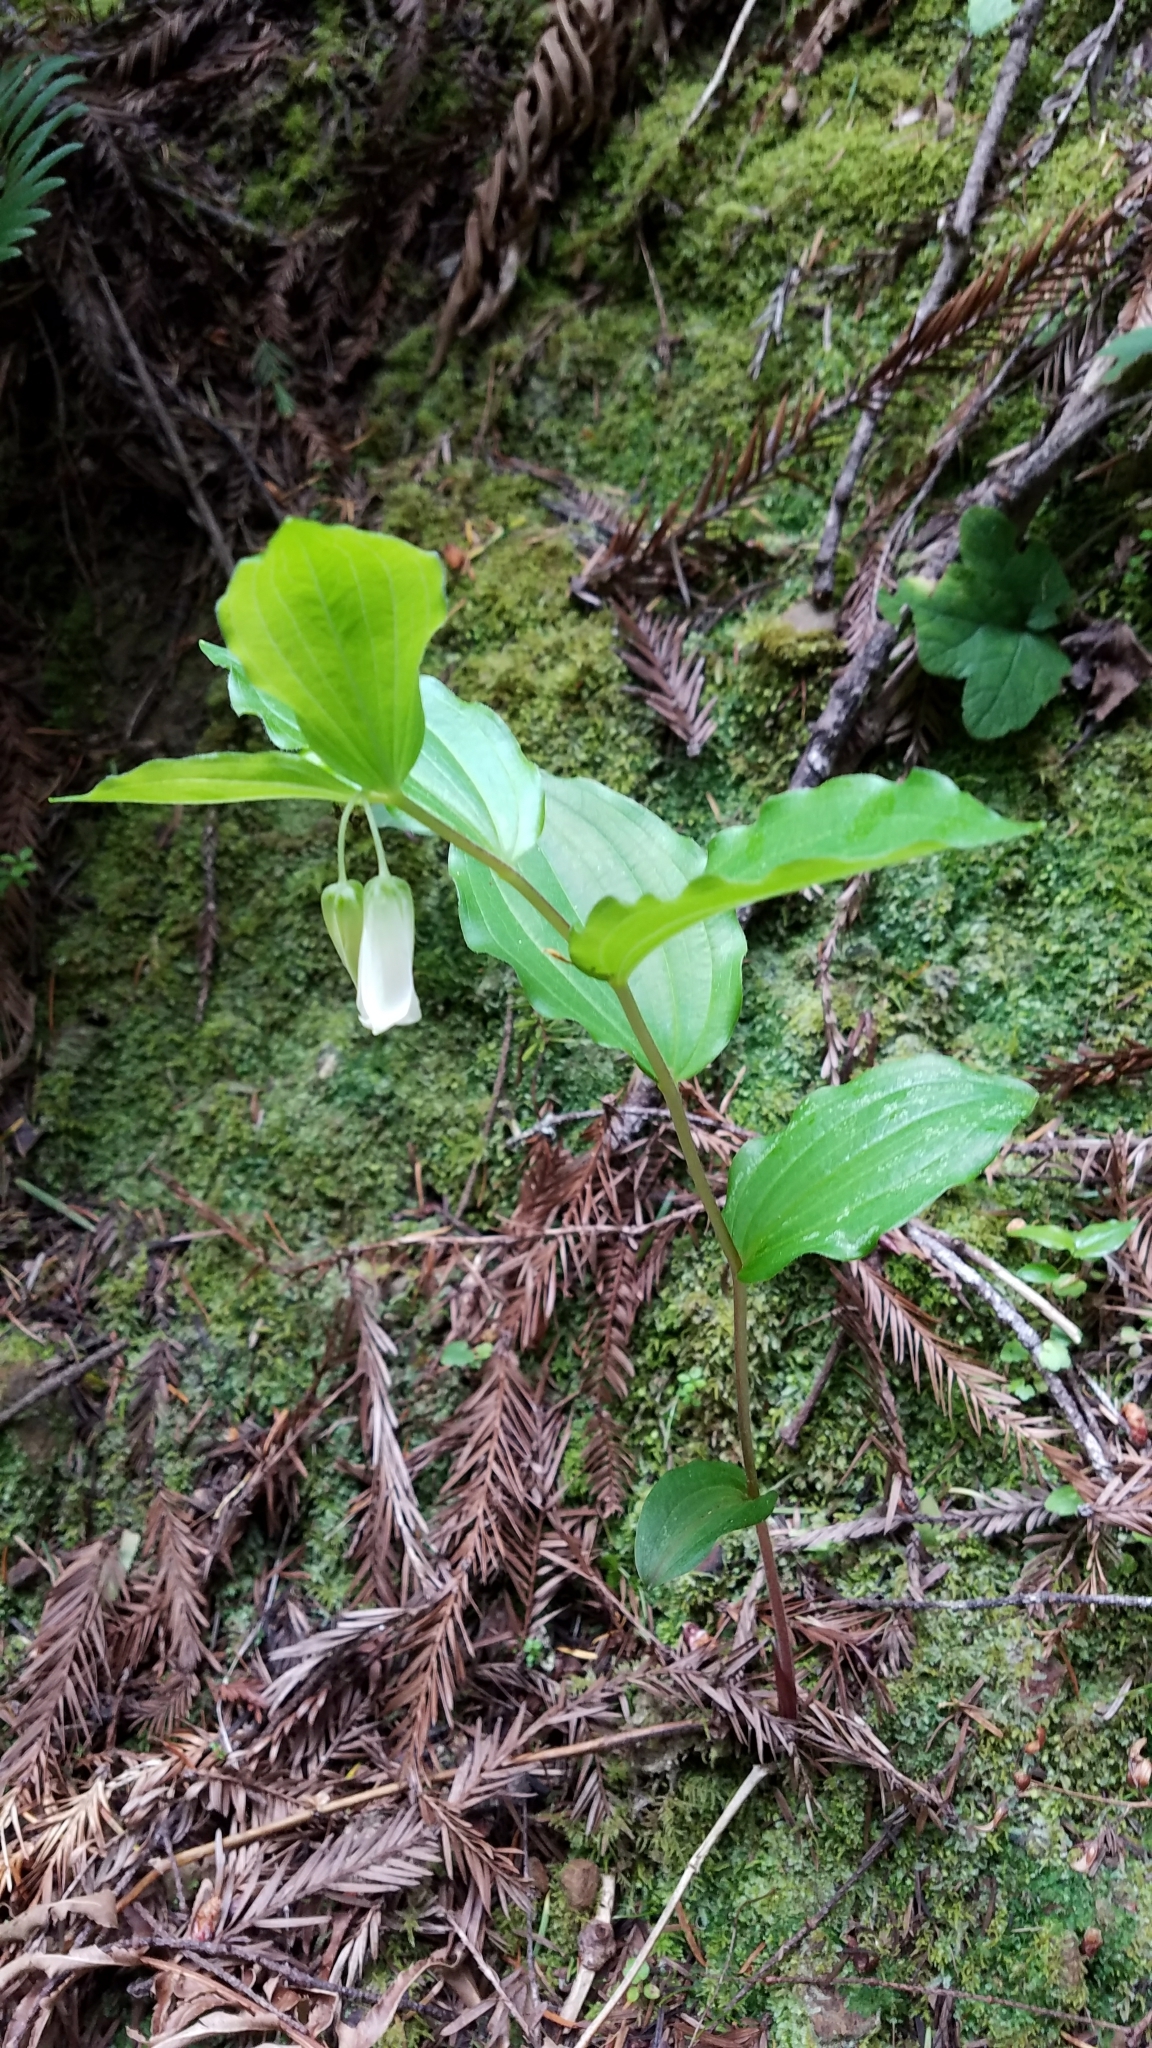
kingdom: Plantae
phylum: Tracheophyta
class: Liliopsida
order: Liliales
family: Liliaceae
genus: Prosartes
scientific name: Prosartes smithii
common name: Fairy-lantern
